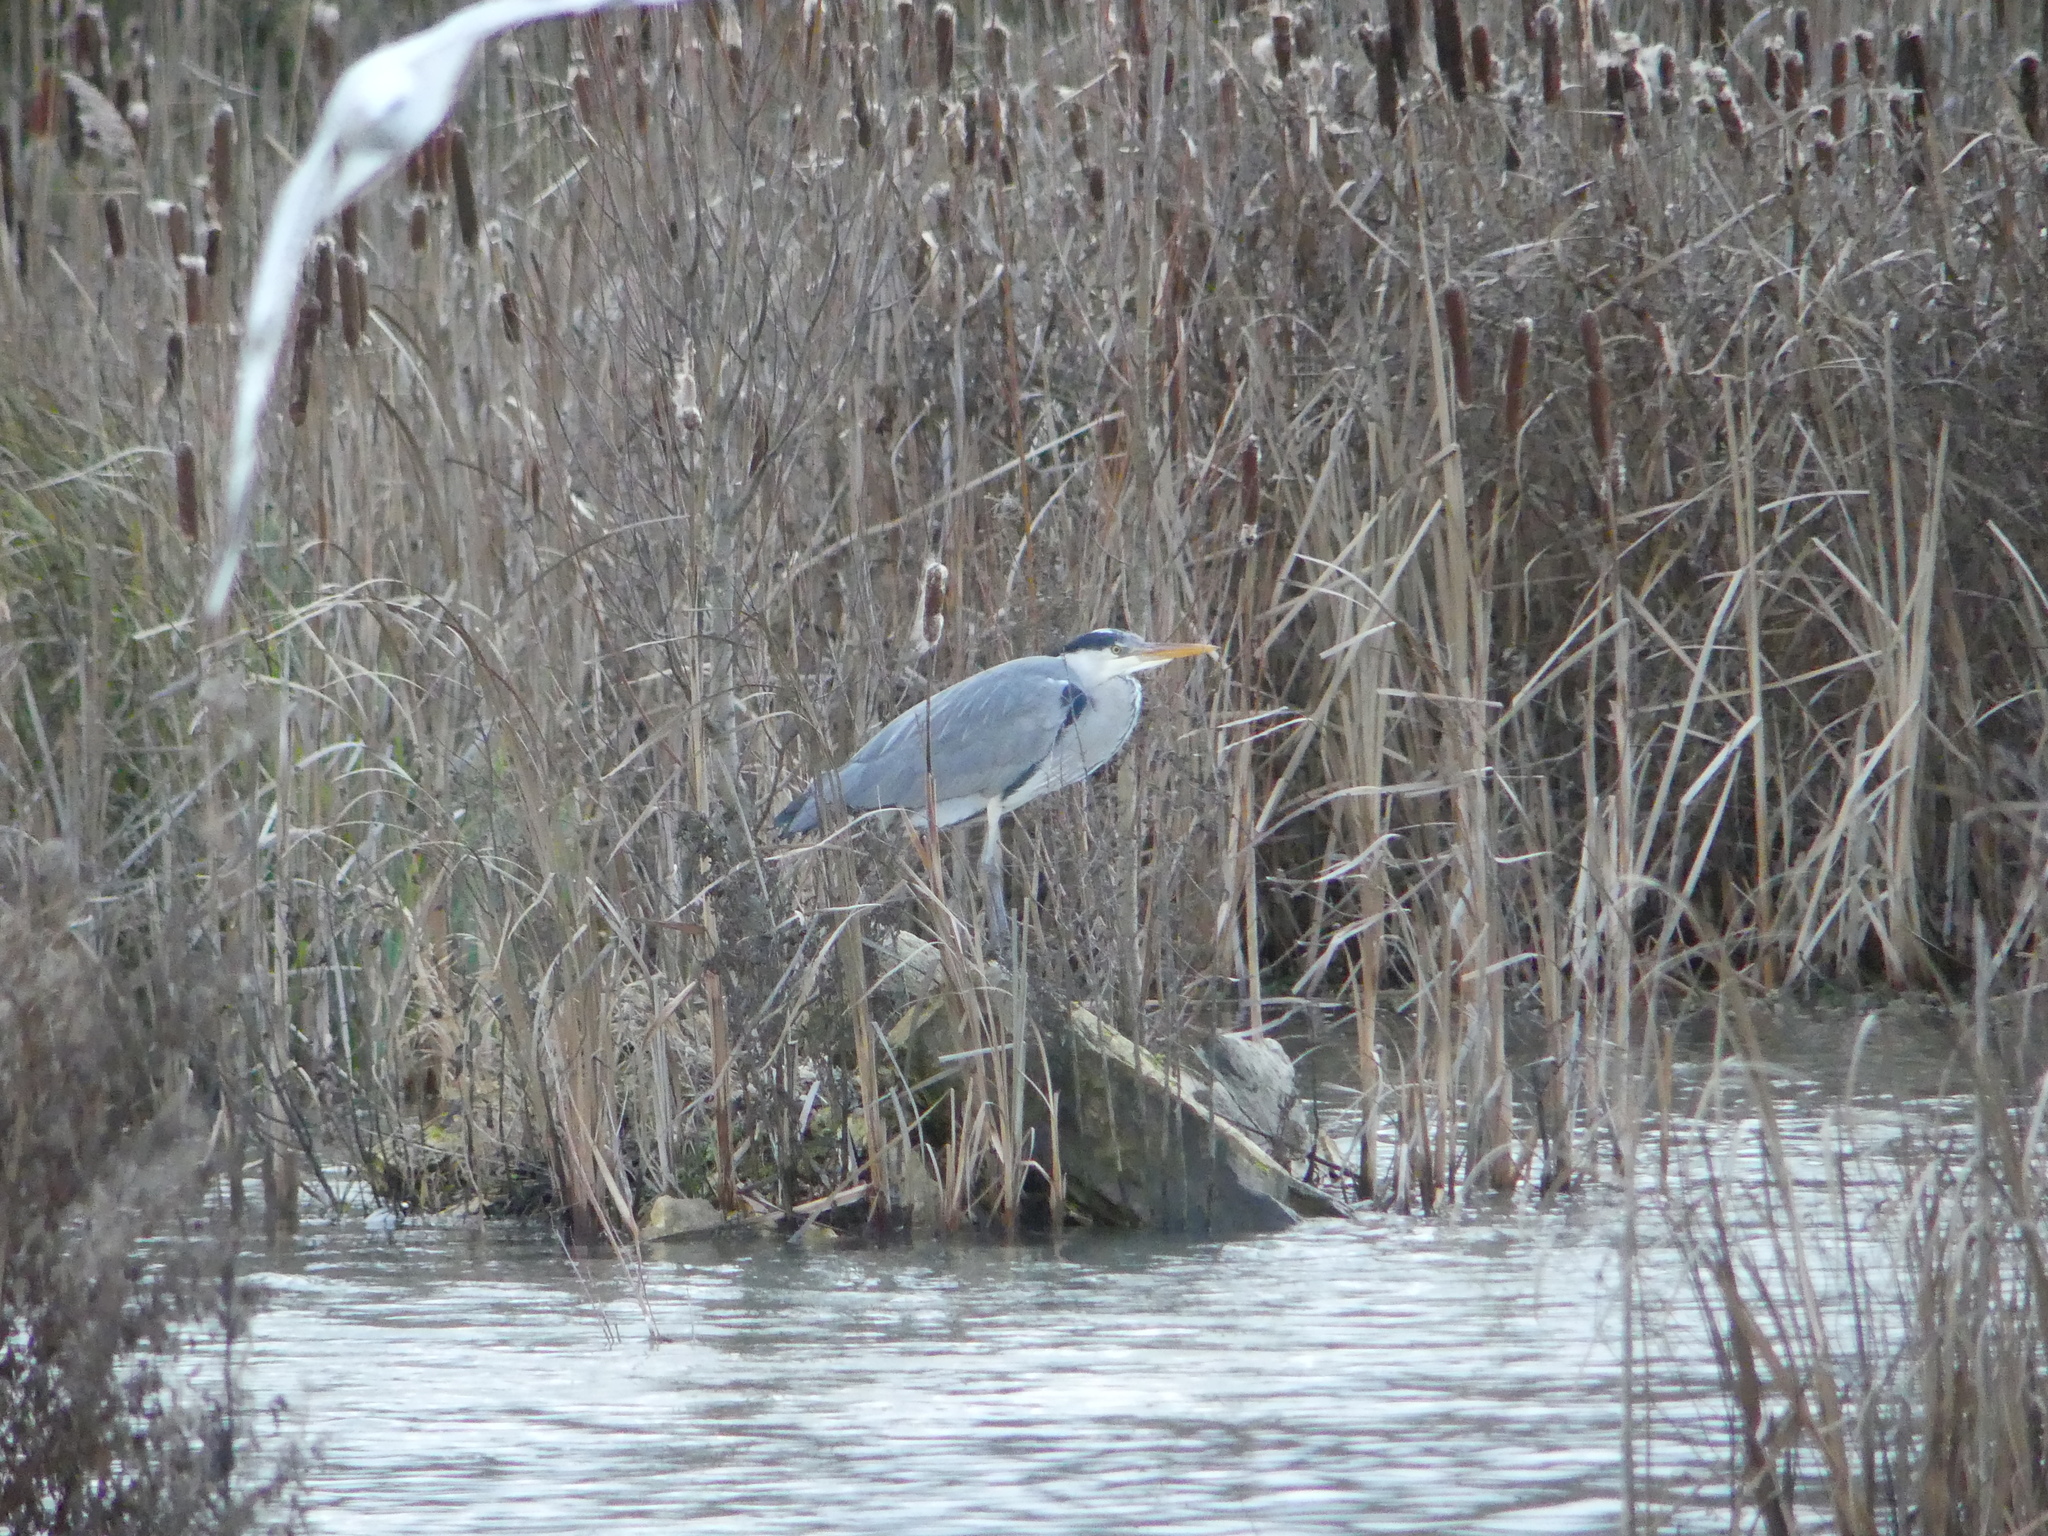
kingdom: Animalia
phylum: Chordata
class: Aves
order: Pelecaniformes
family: Ardeidae
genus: Ardea
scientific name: Ardea cinerea
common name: Grey heron
